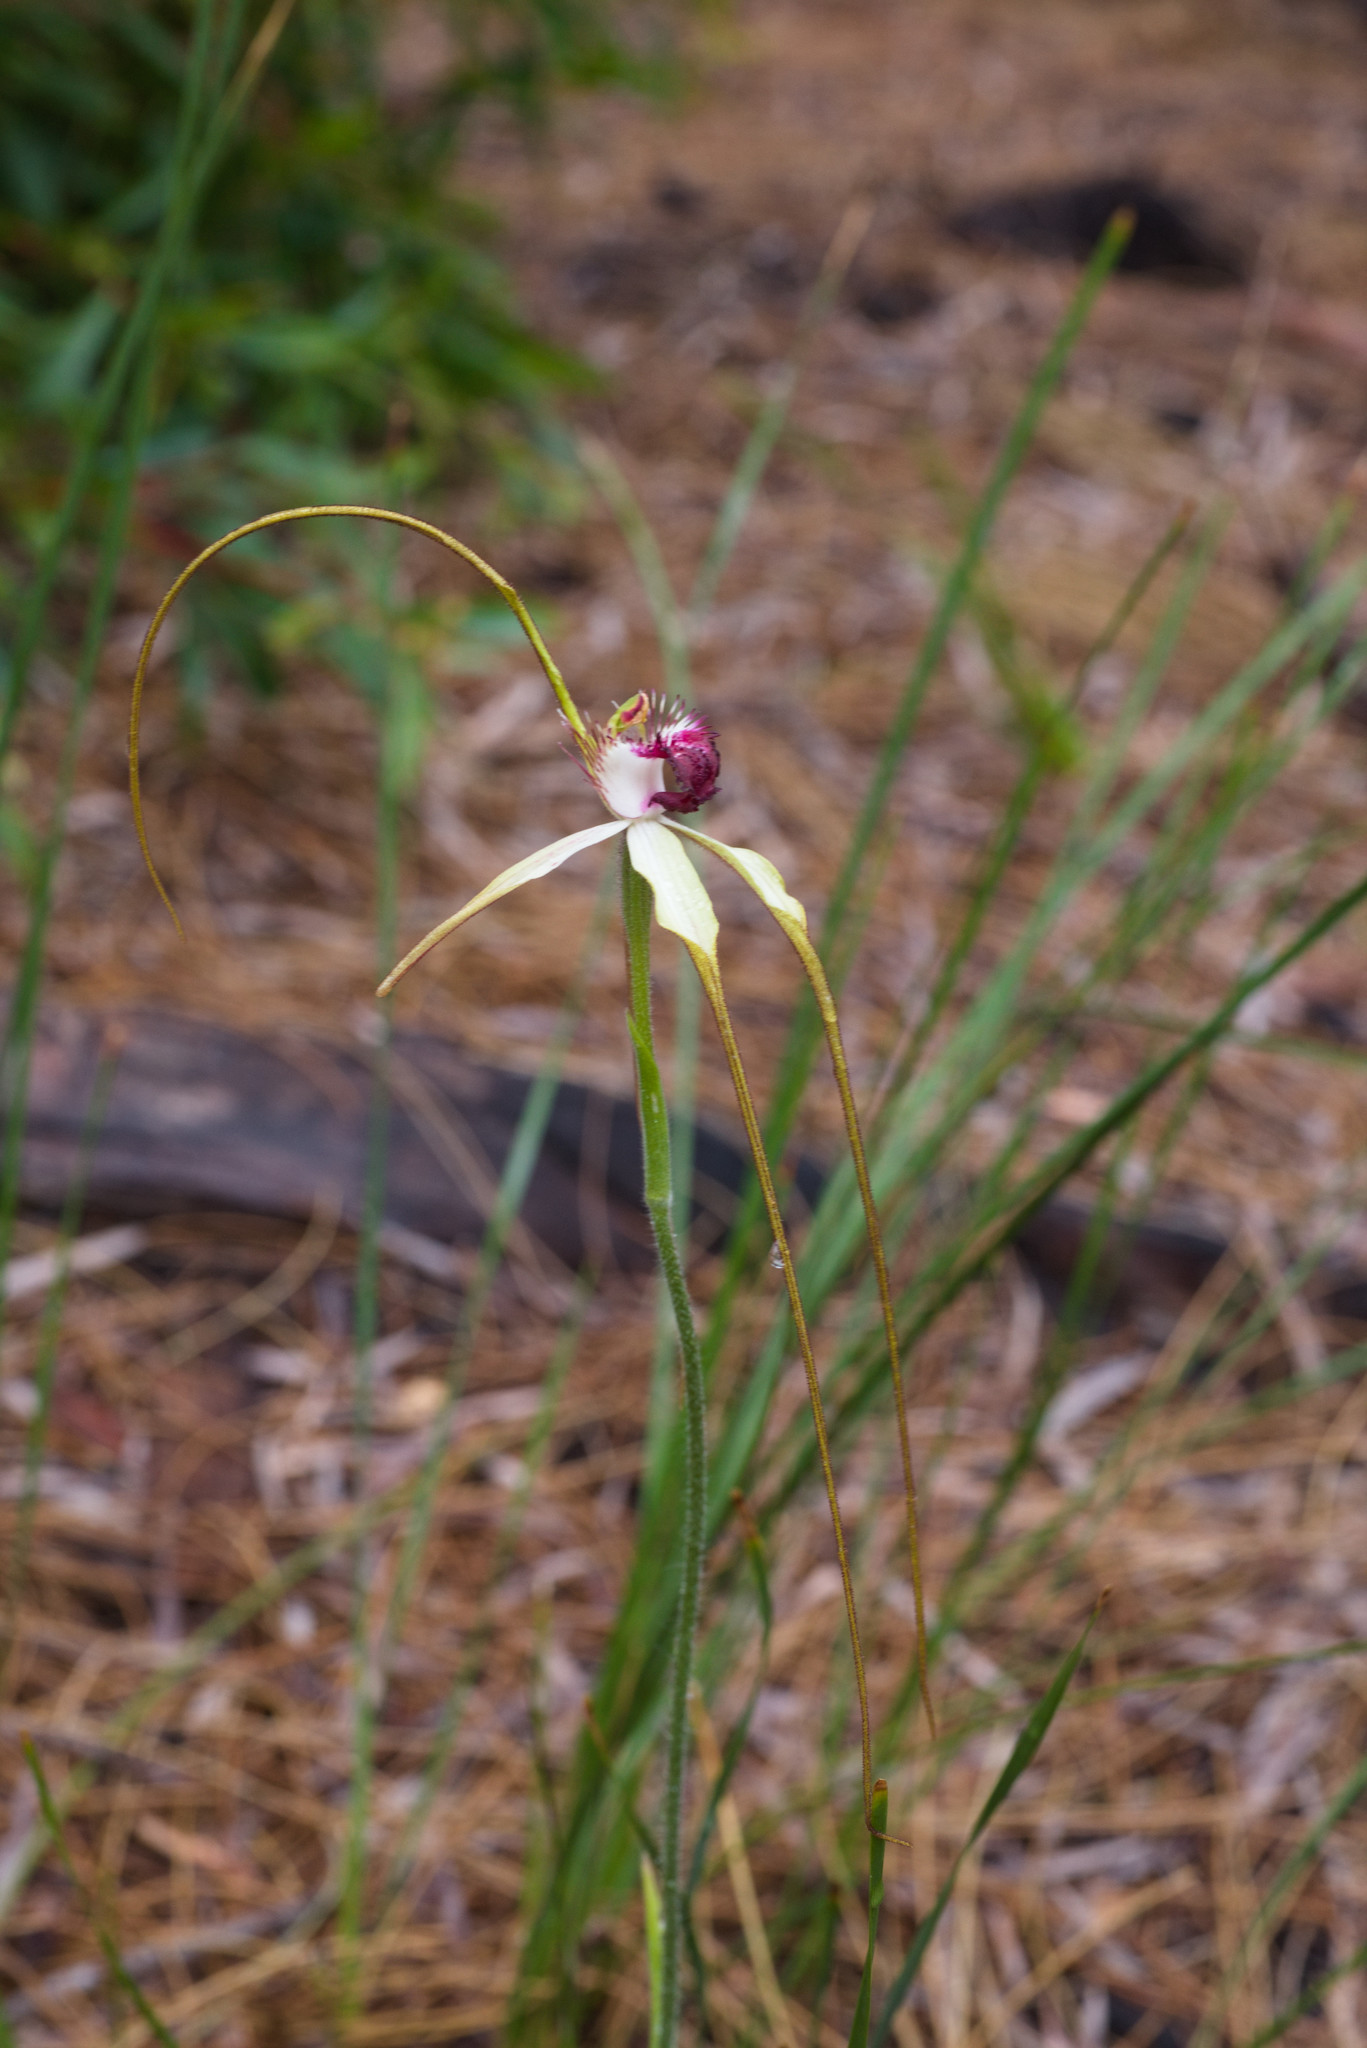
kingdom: Plantae
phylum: Tracheophyta
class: Liliopsida
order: Asparagales
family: Orchidaceae
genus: Caladenia
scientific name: Caladenia excelsa
